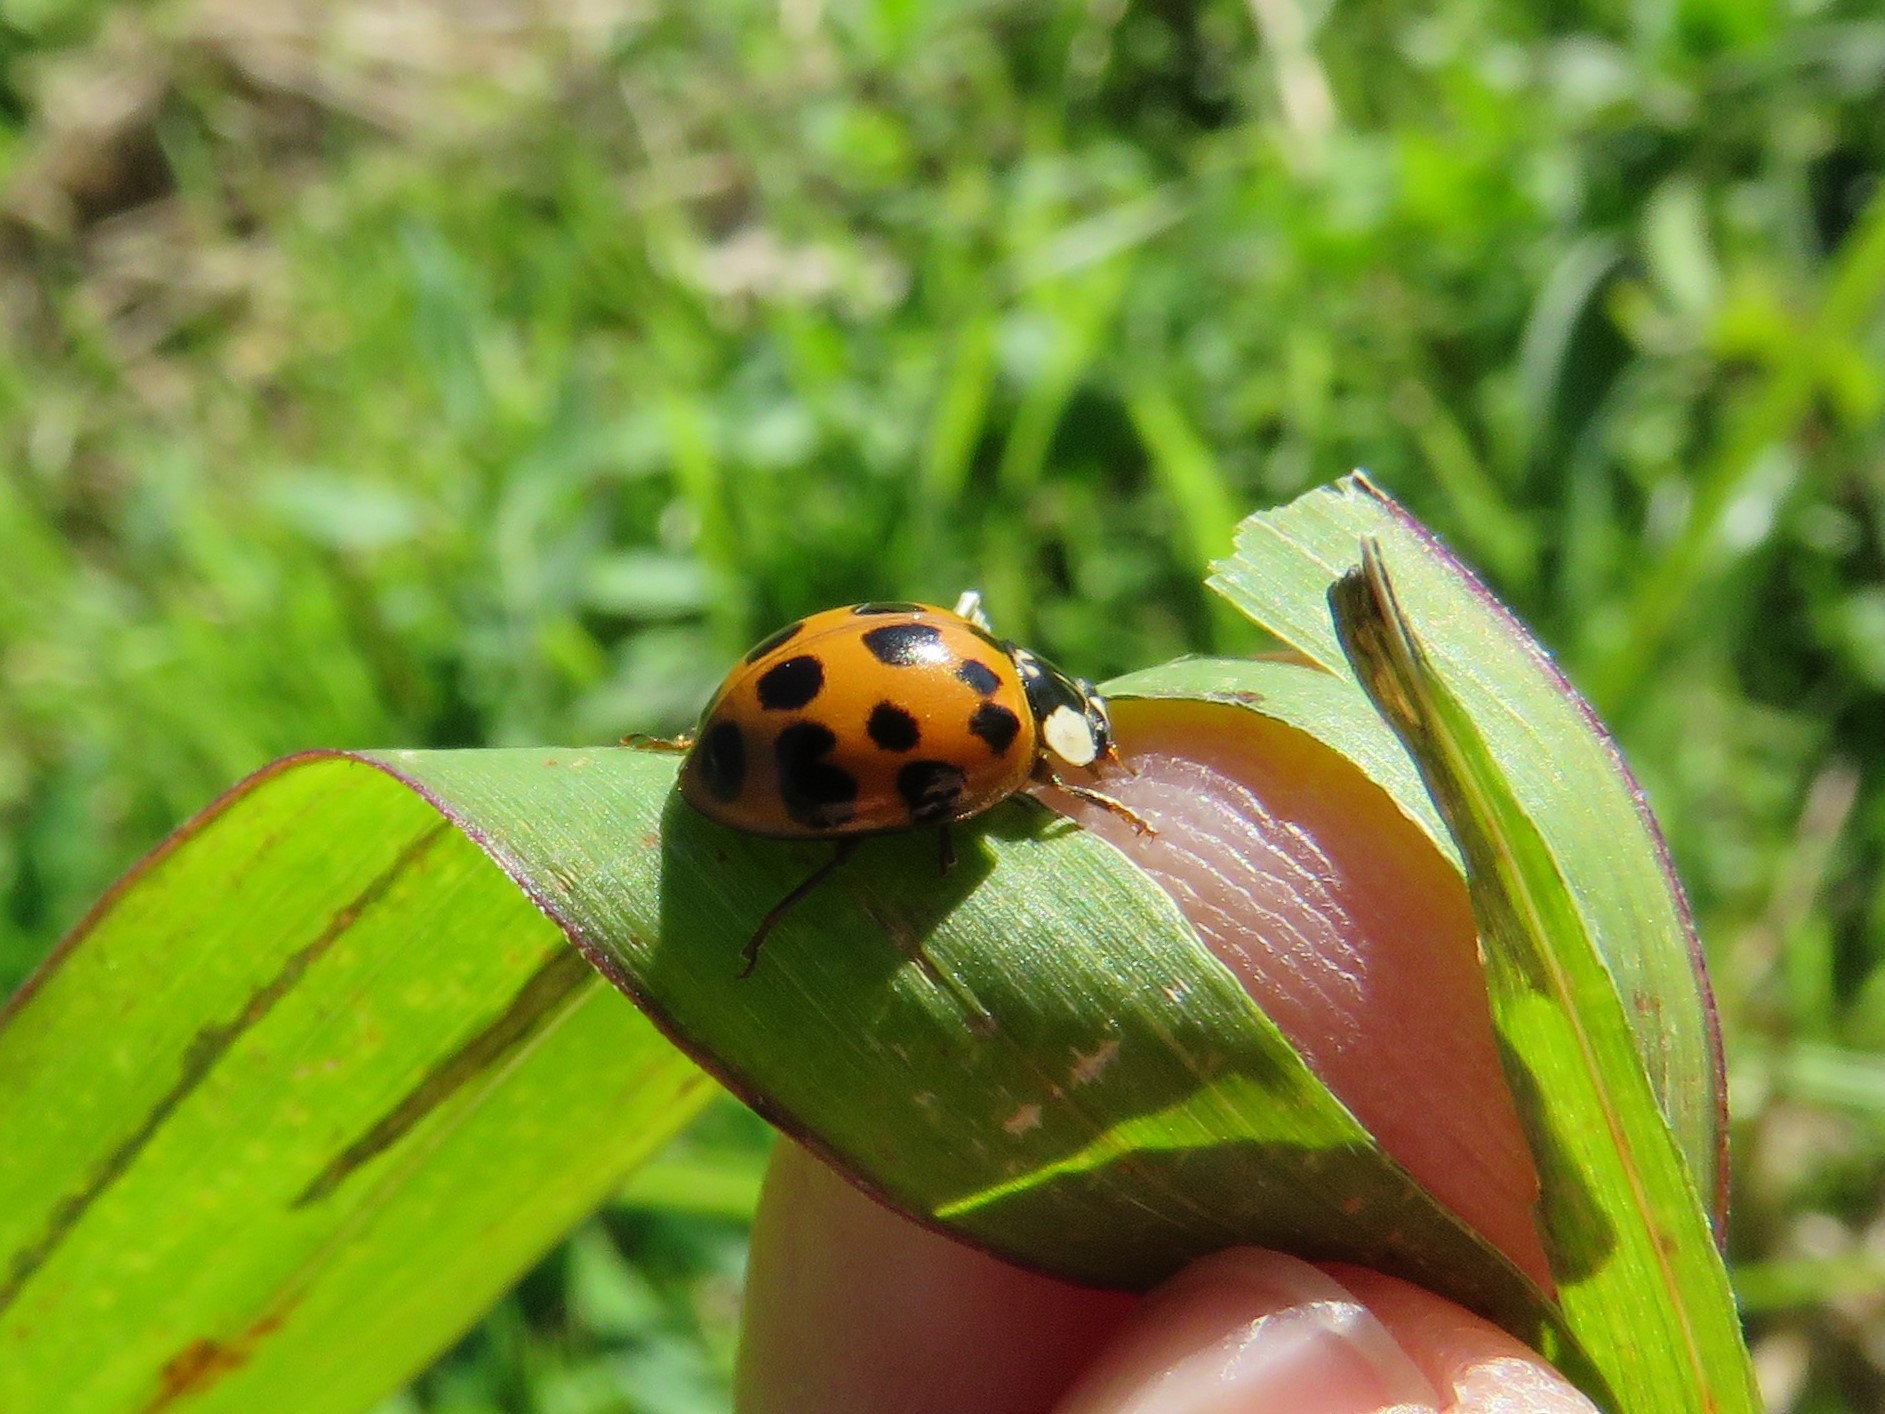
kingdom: Animalia
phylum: Arthropoda
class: Insecta
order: Coleoptera
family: Coccinellidae
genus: Harmonia
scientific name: Harmonia axyridis
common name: Harlequin ladybird
